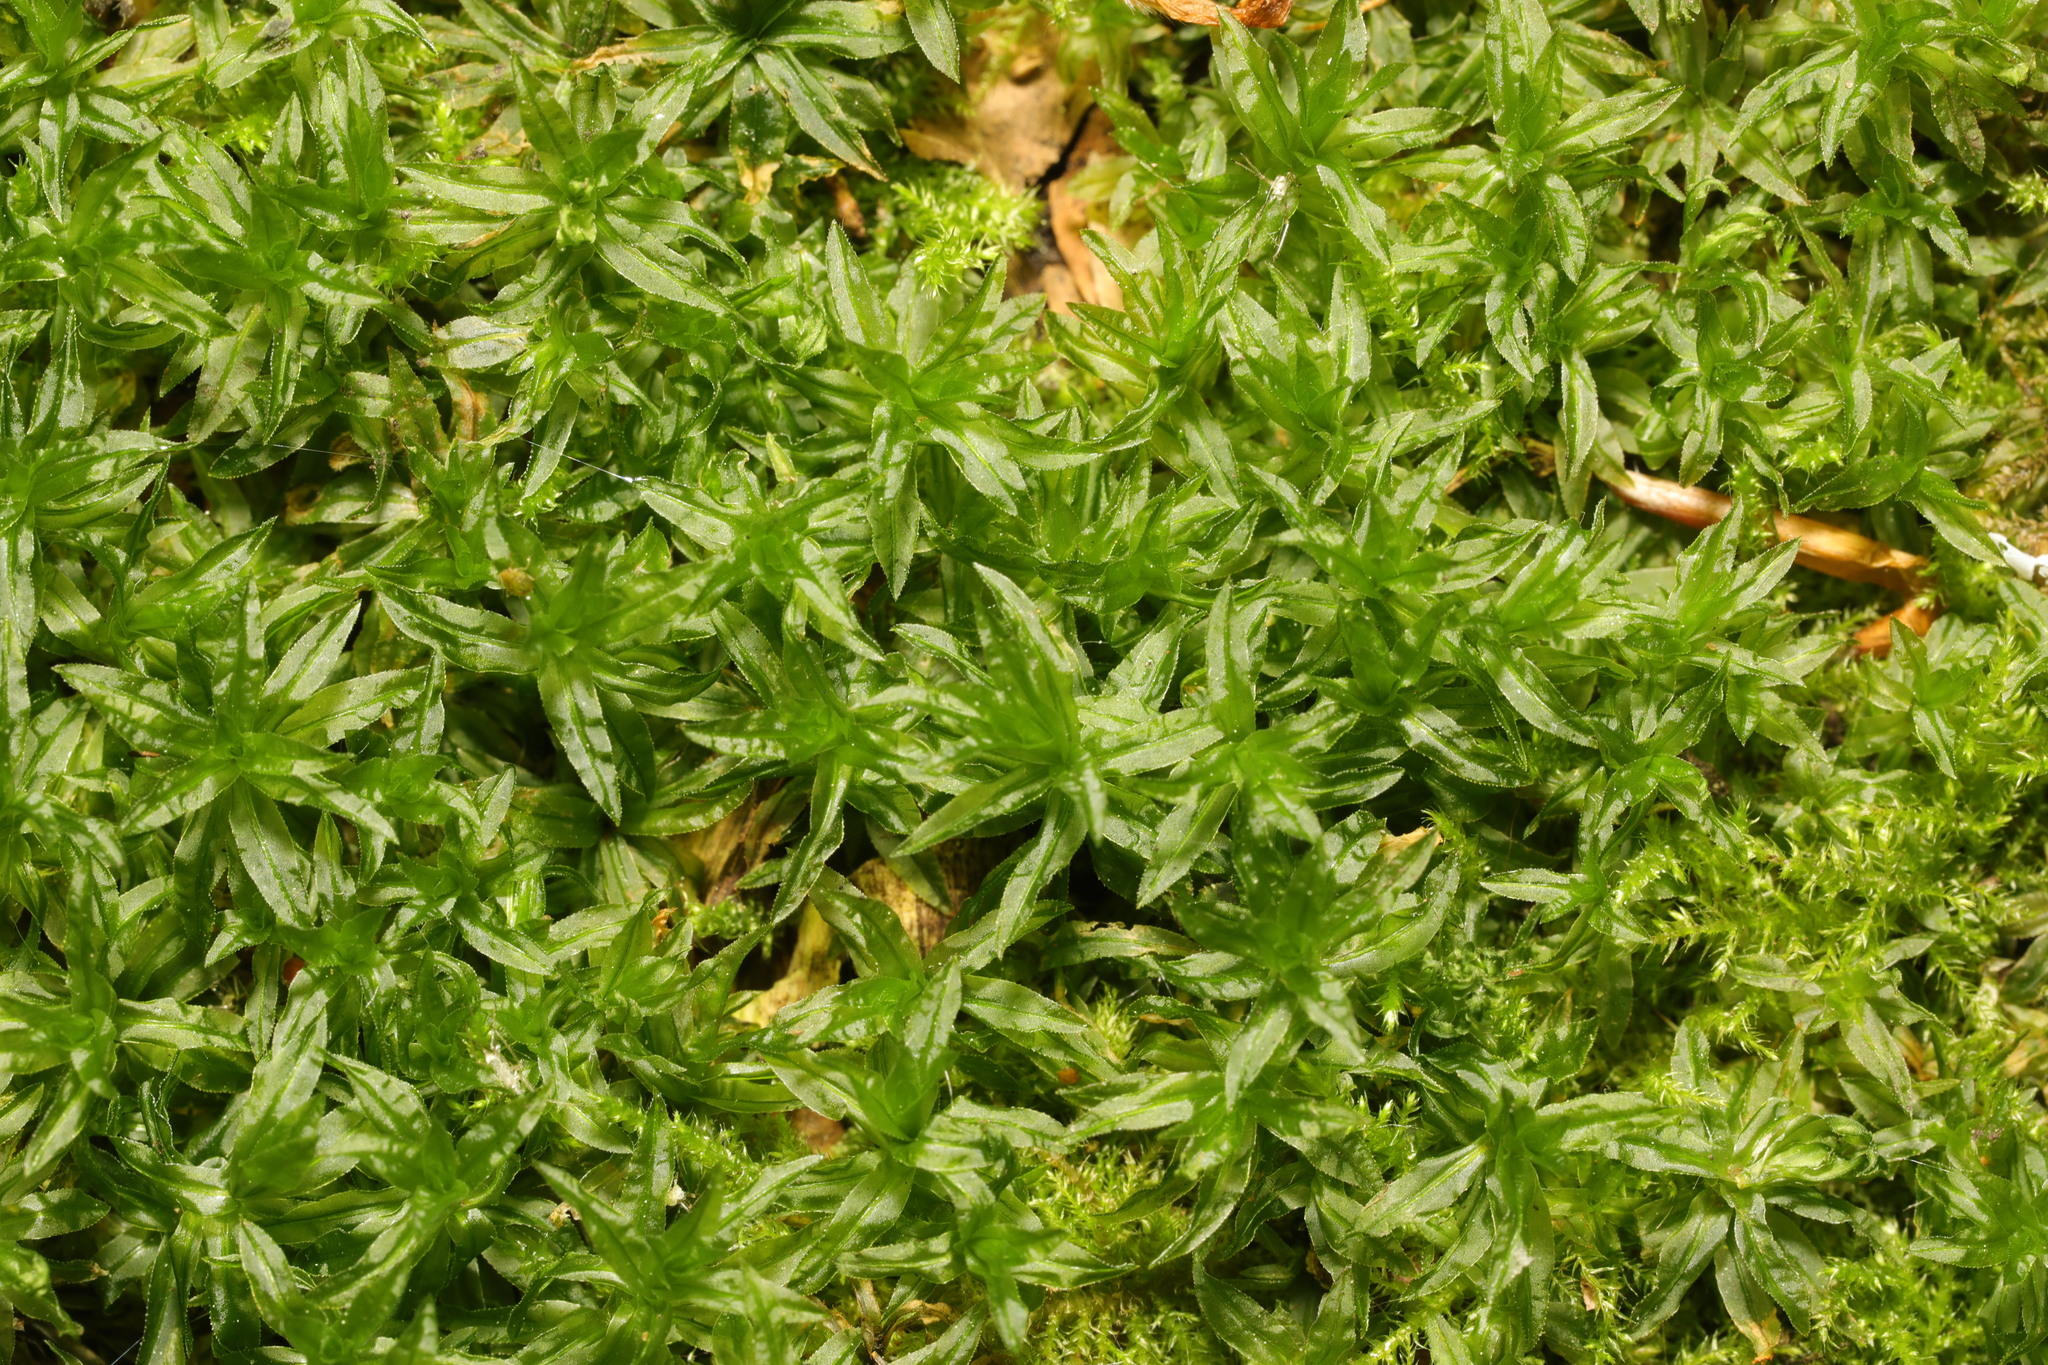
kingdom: Plantae
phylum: Bryophyta
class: Polytrichopsida
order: Polytrichales
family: Polytrichaceae
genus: Atrichum
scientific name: Atrichum undulatum
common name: Common smoothcap
